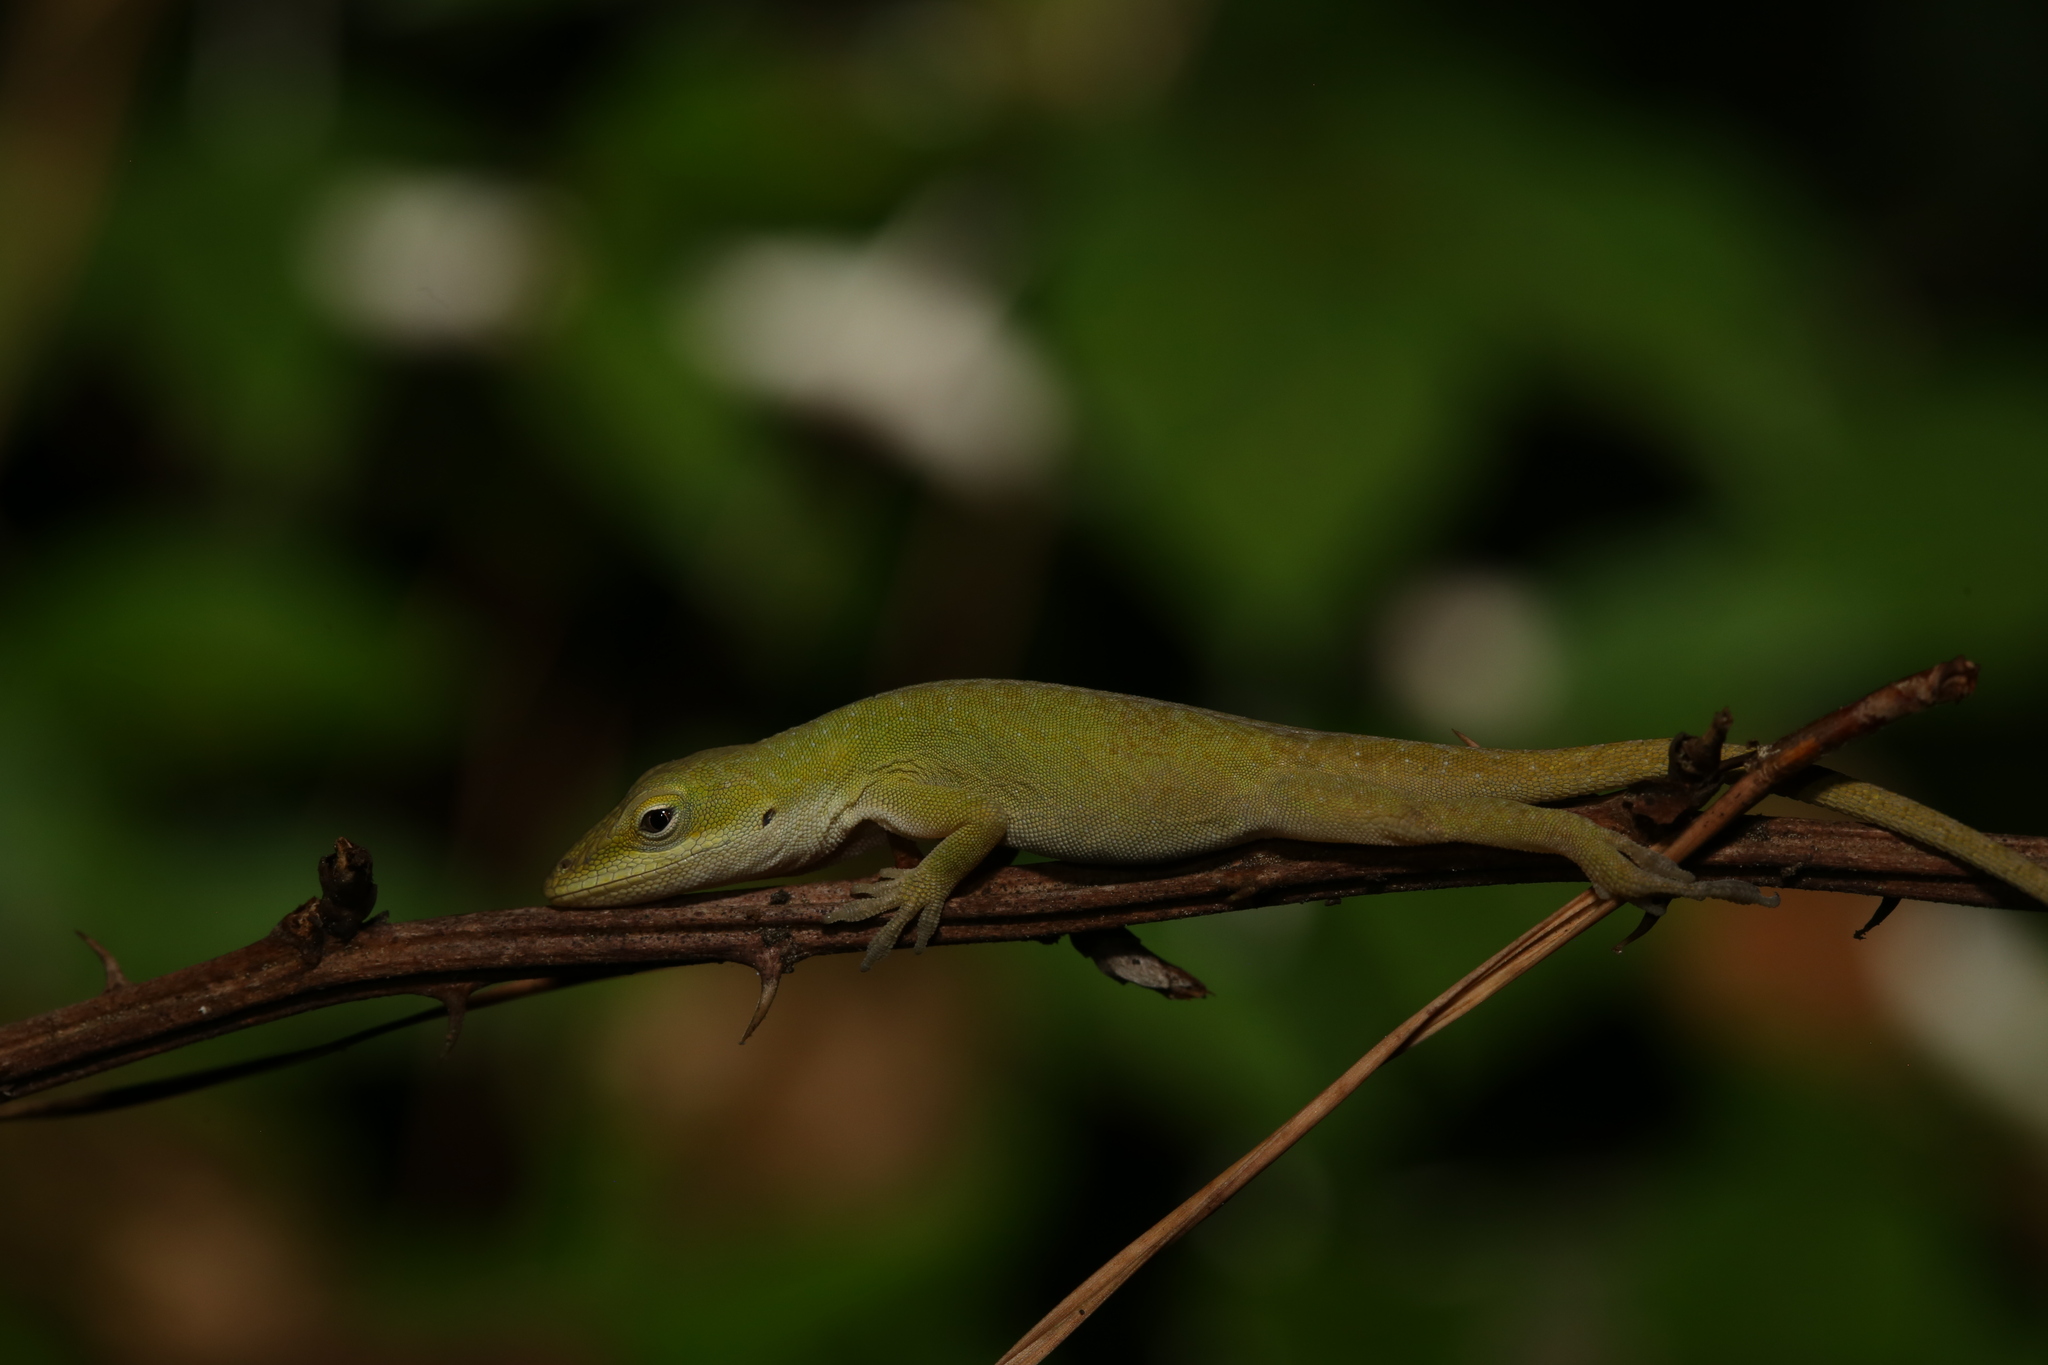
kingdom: Animalia
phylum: Chordata
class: Squamata
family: Dactyloidae
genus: Anolis
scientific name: Anolis carolinensis
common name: Green anole
